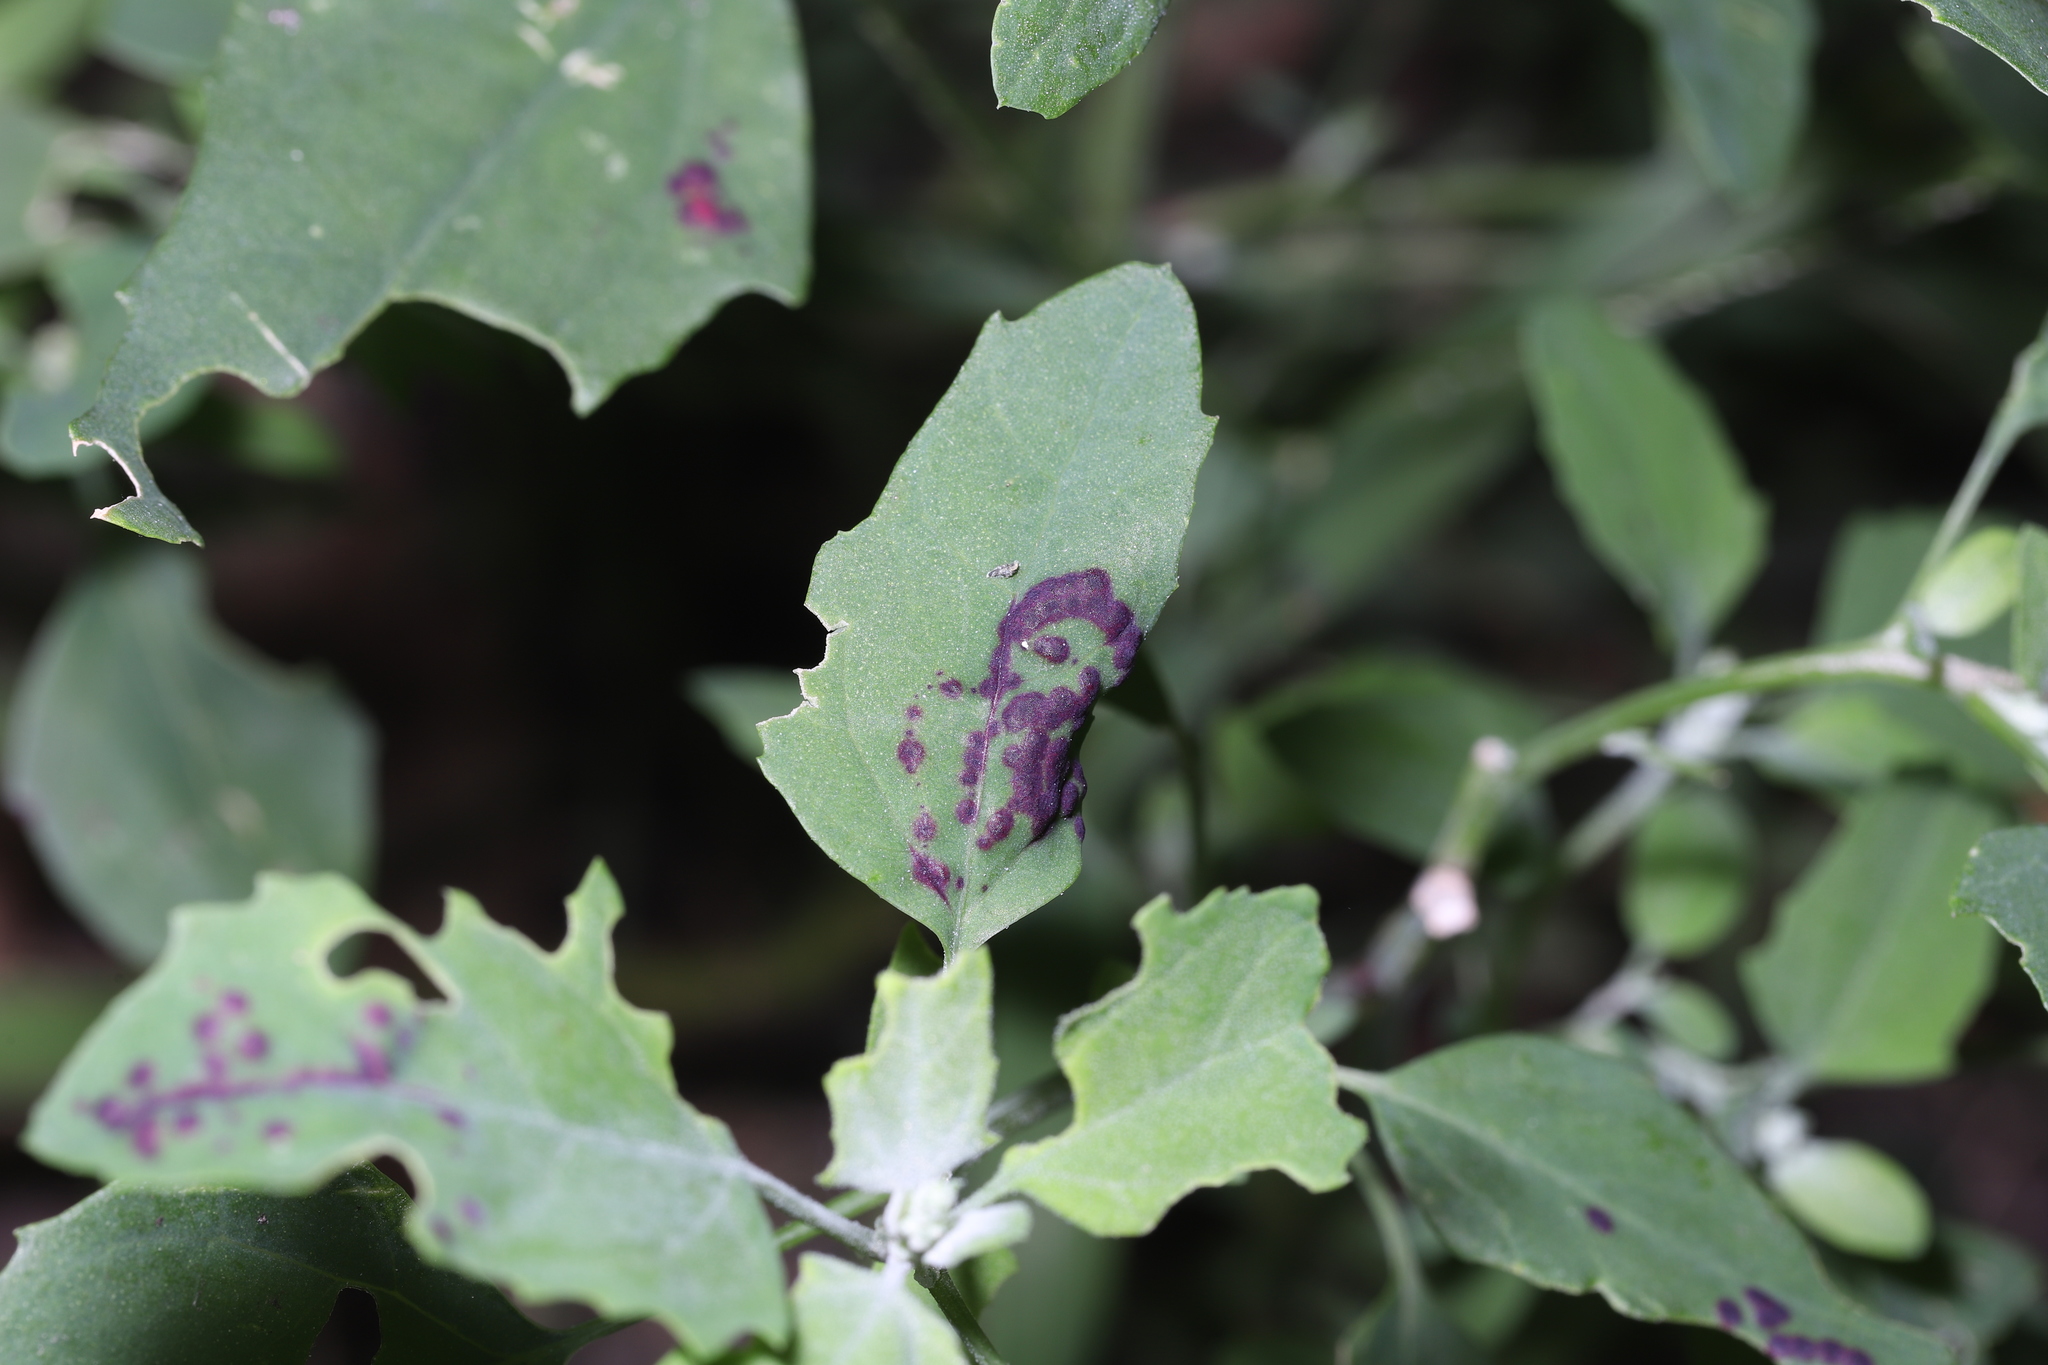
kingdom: Animalia
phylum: Arthropoda
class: Insecta
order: Hemiptera
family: Cicadellidae
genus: Norvellina
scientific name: Norvellina chenopodii
